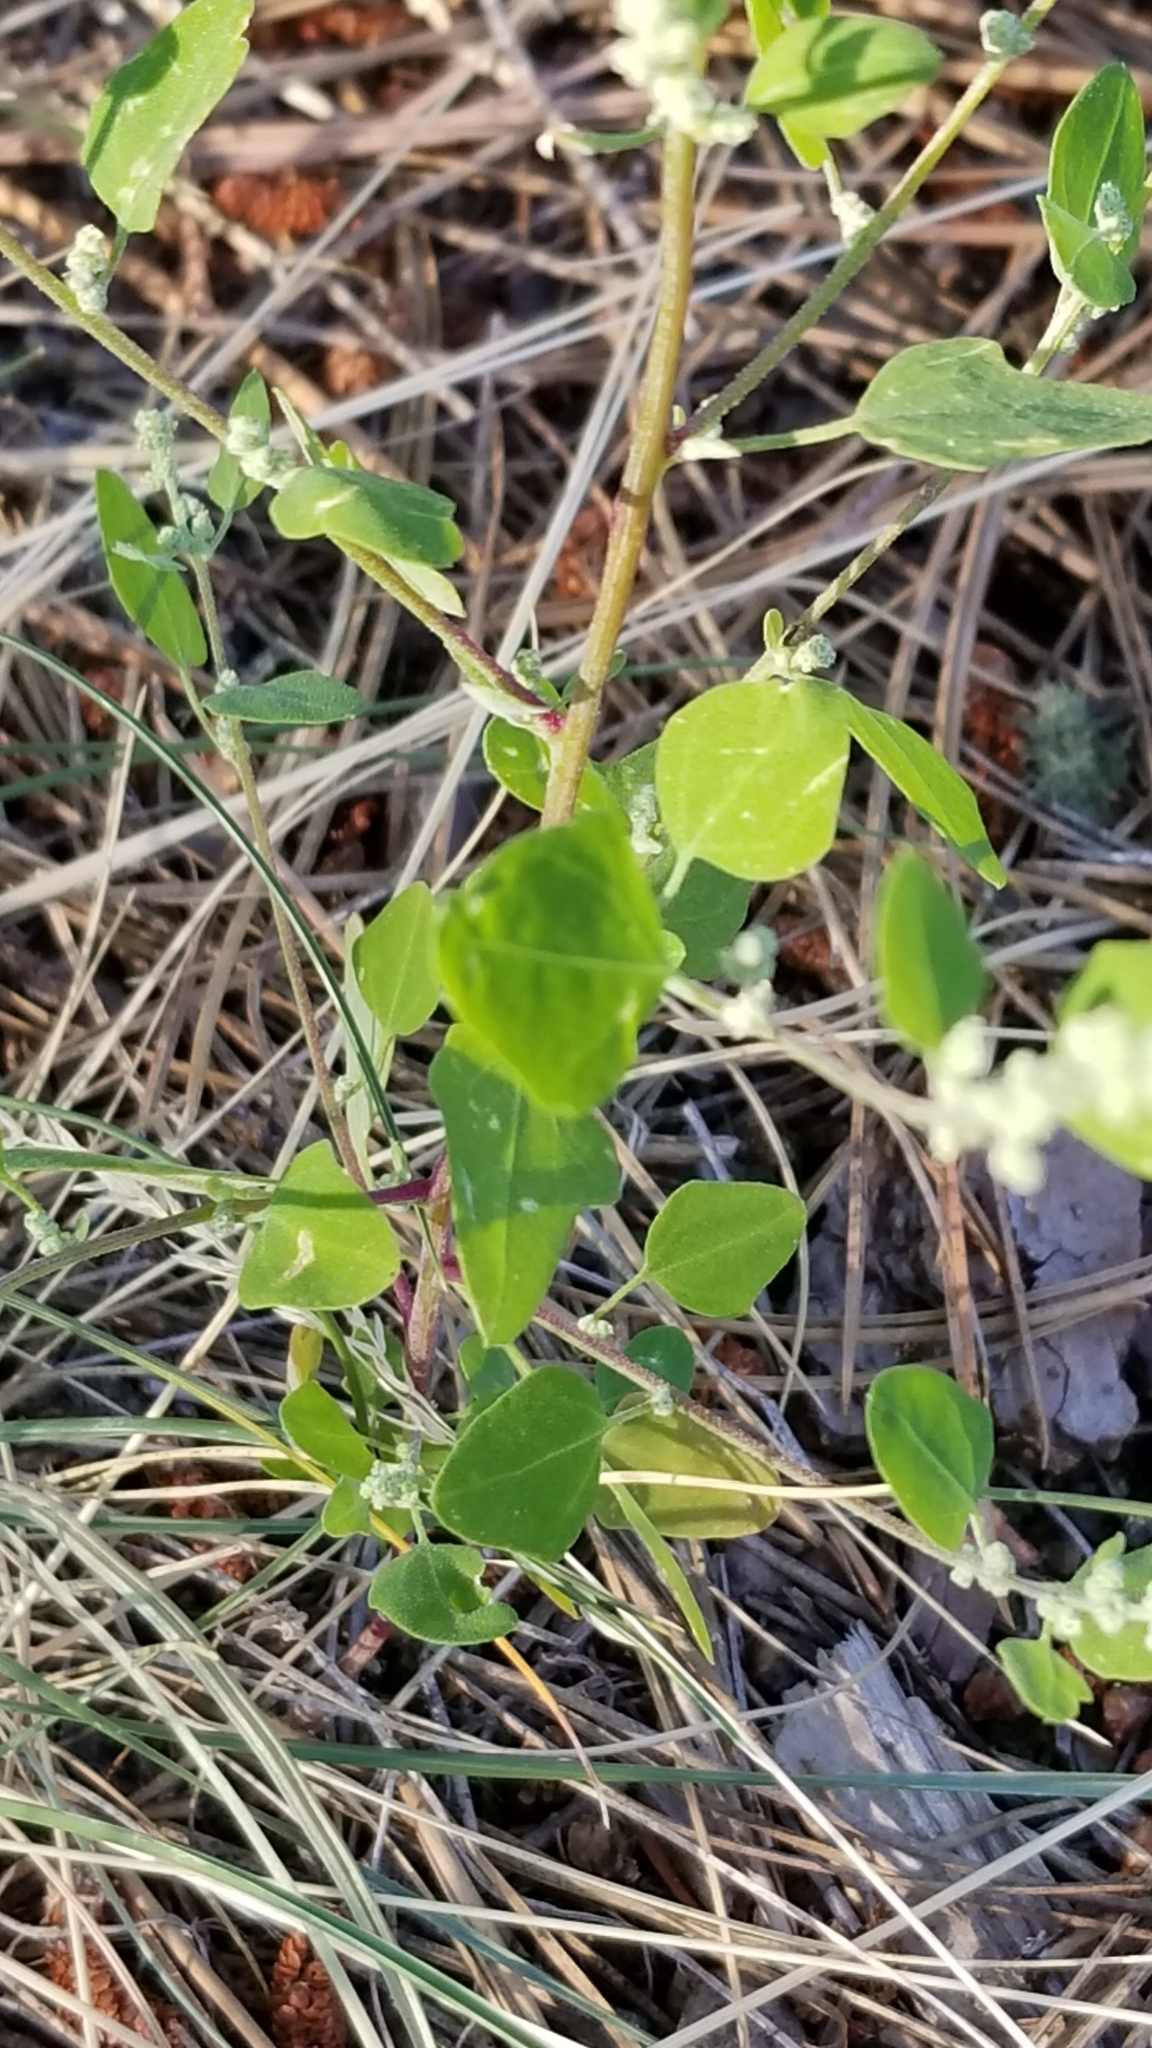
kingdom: Plantae
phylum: Tracheophyta
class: Magnoliopsida
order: Caryophyllales
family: Amaranthaceae
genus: Chenopodium
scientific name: Chenopodium album
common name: Fat-hen
